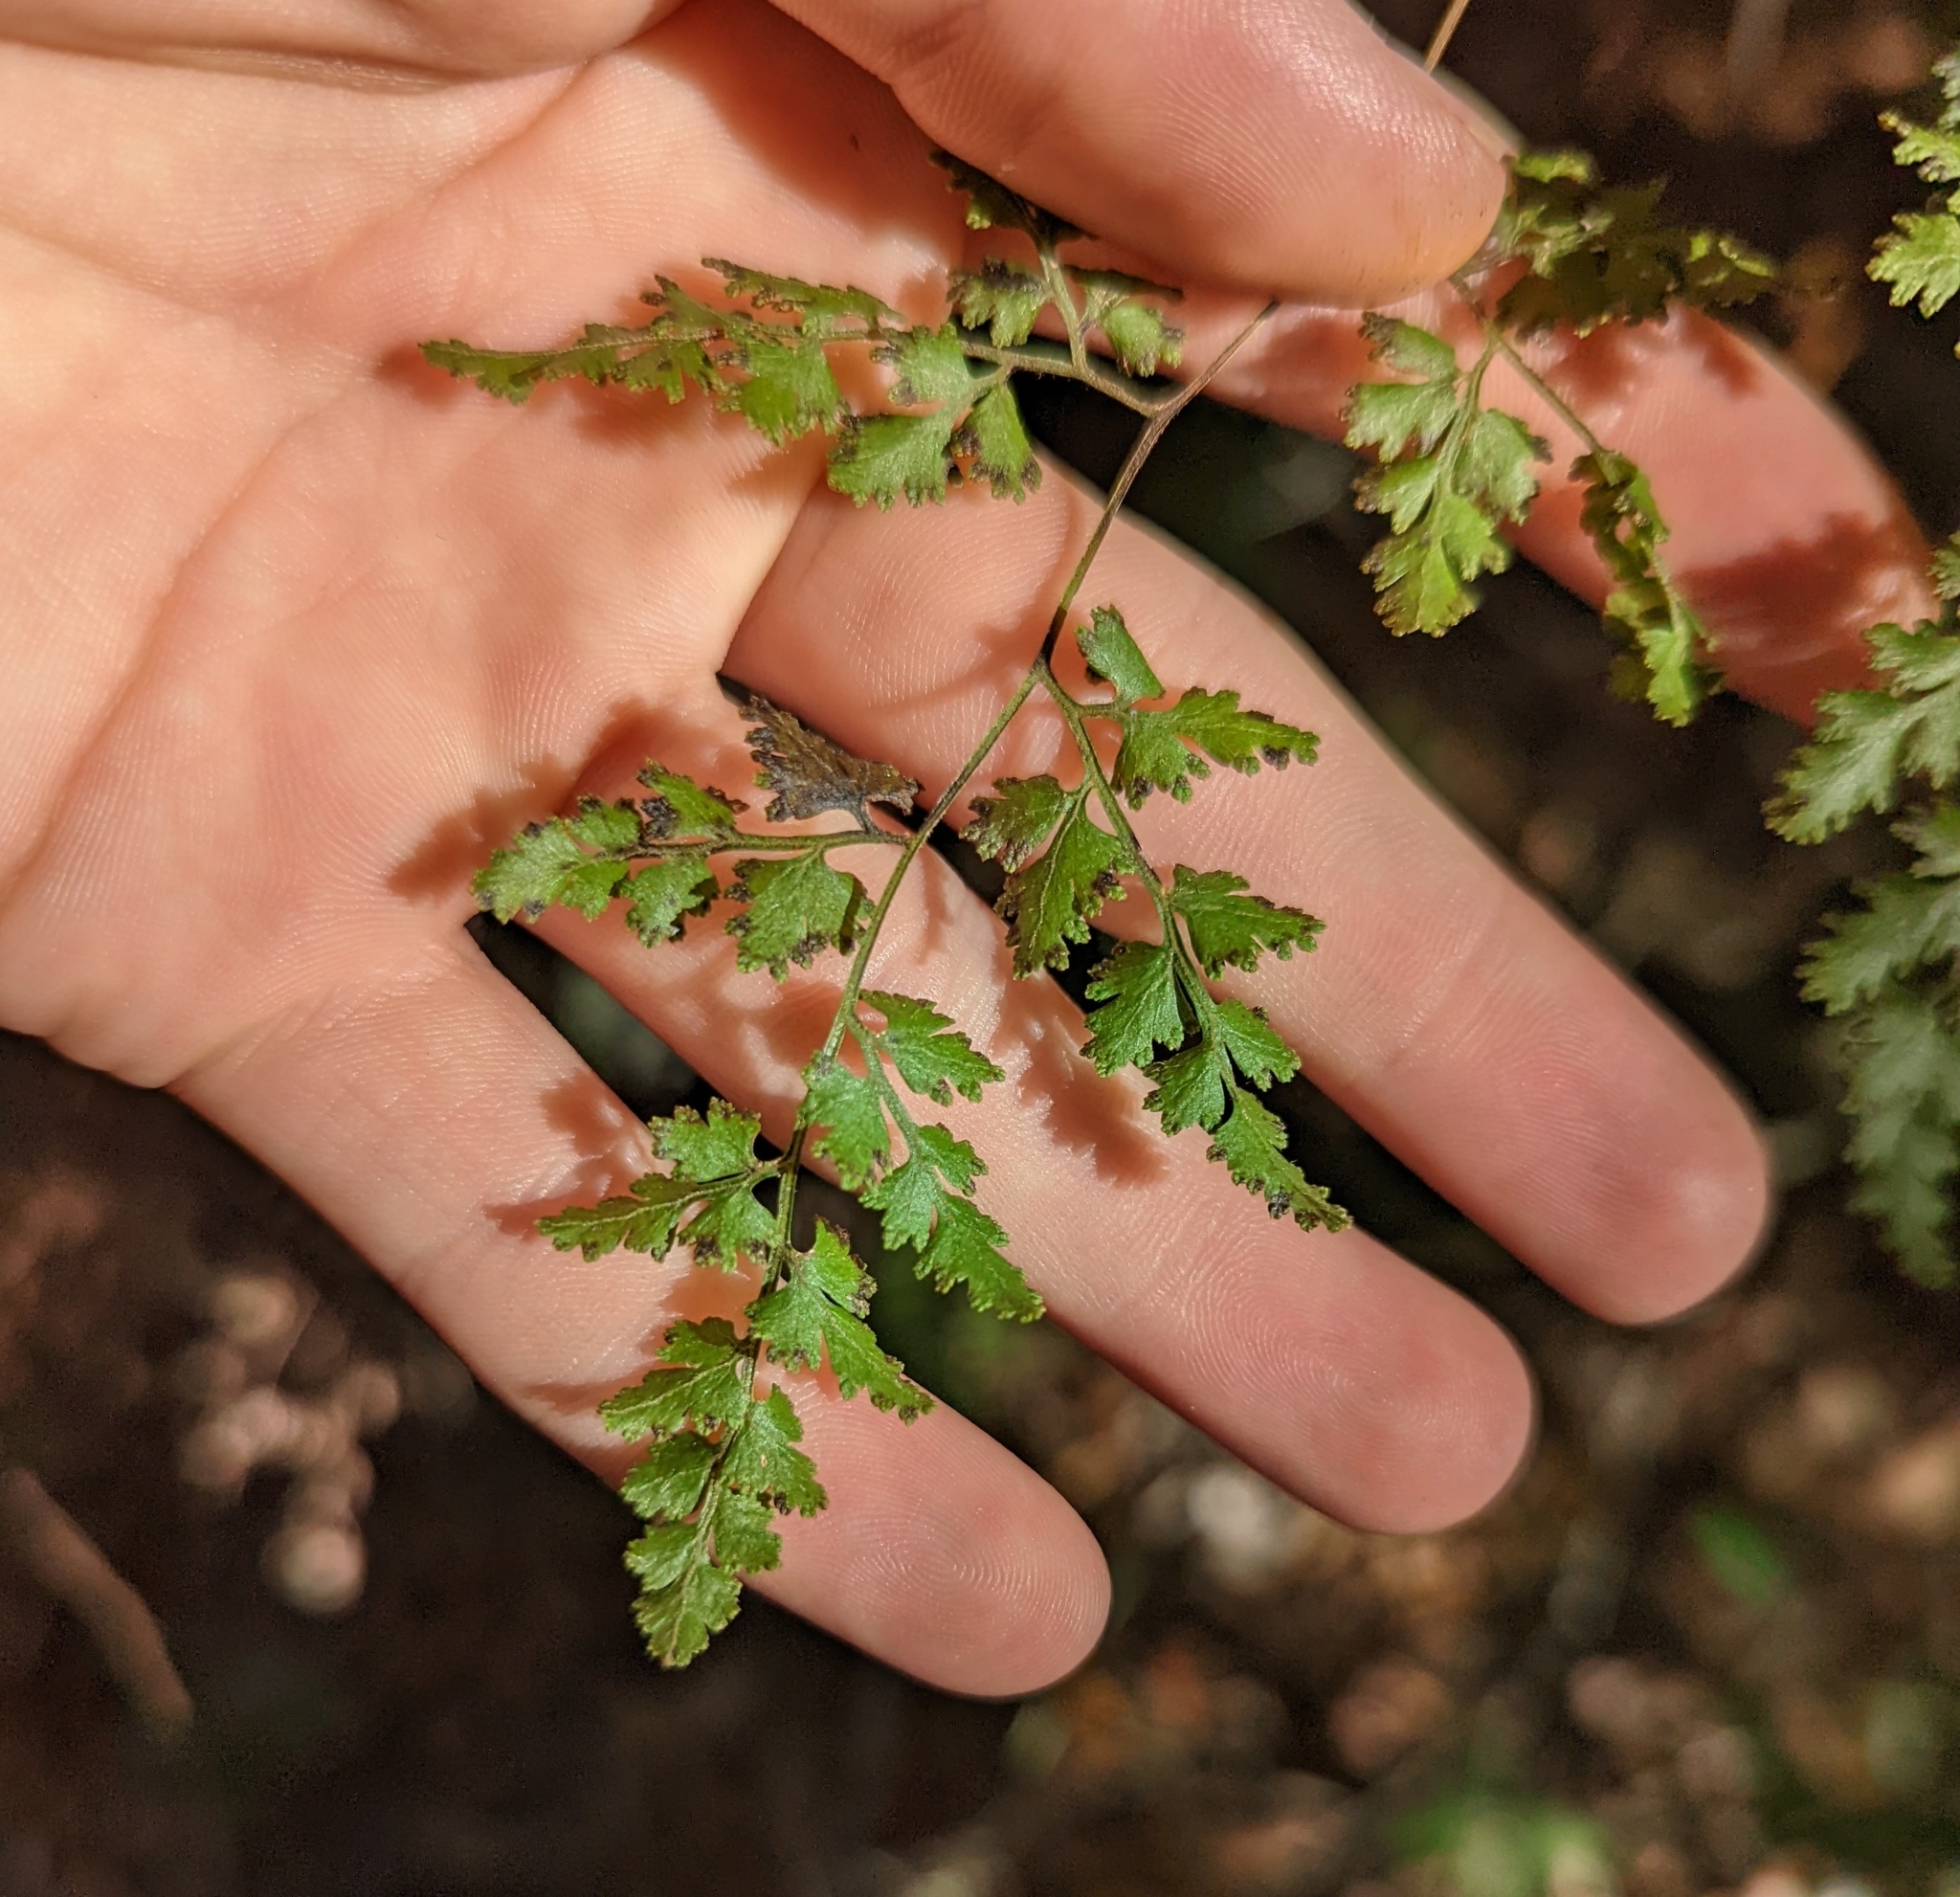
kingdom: Plantae
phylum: Tracheophyta
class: Polypodiopsida
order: Schizaeales
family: Lygodiaceae
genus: Lygodium
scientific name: Lygodium japonicum
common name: Japanese climbing fern
